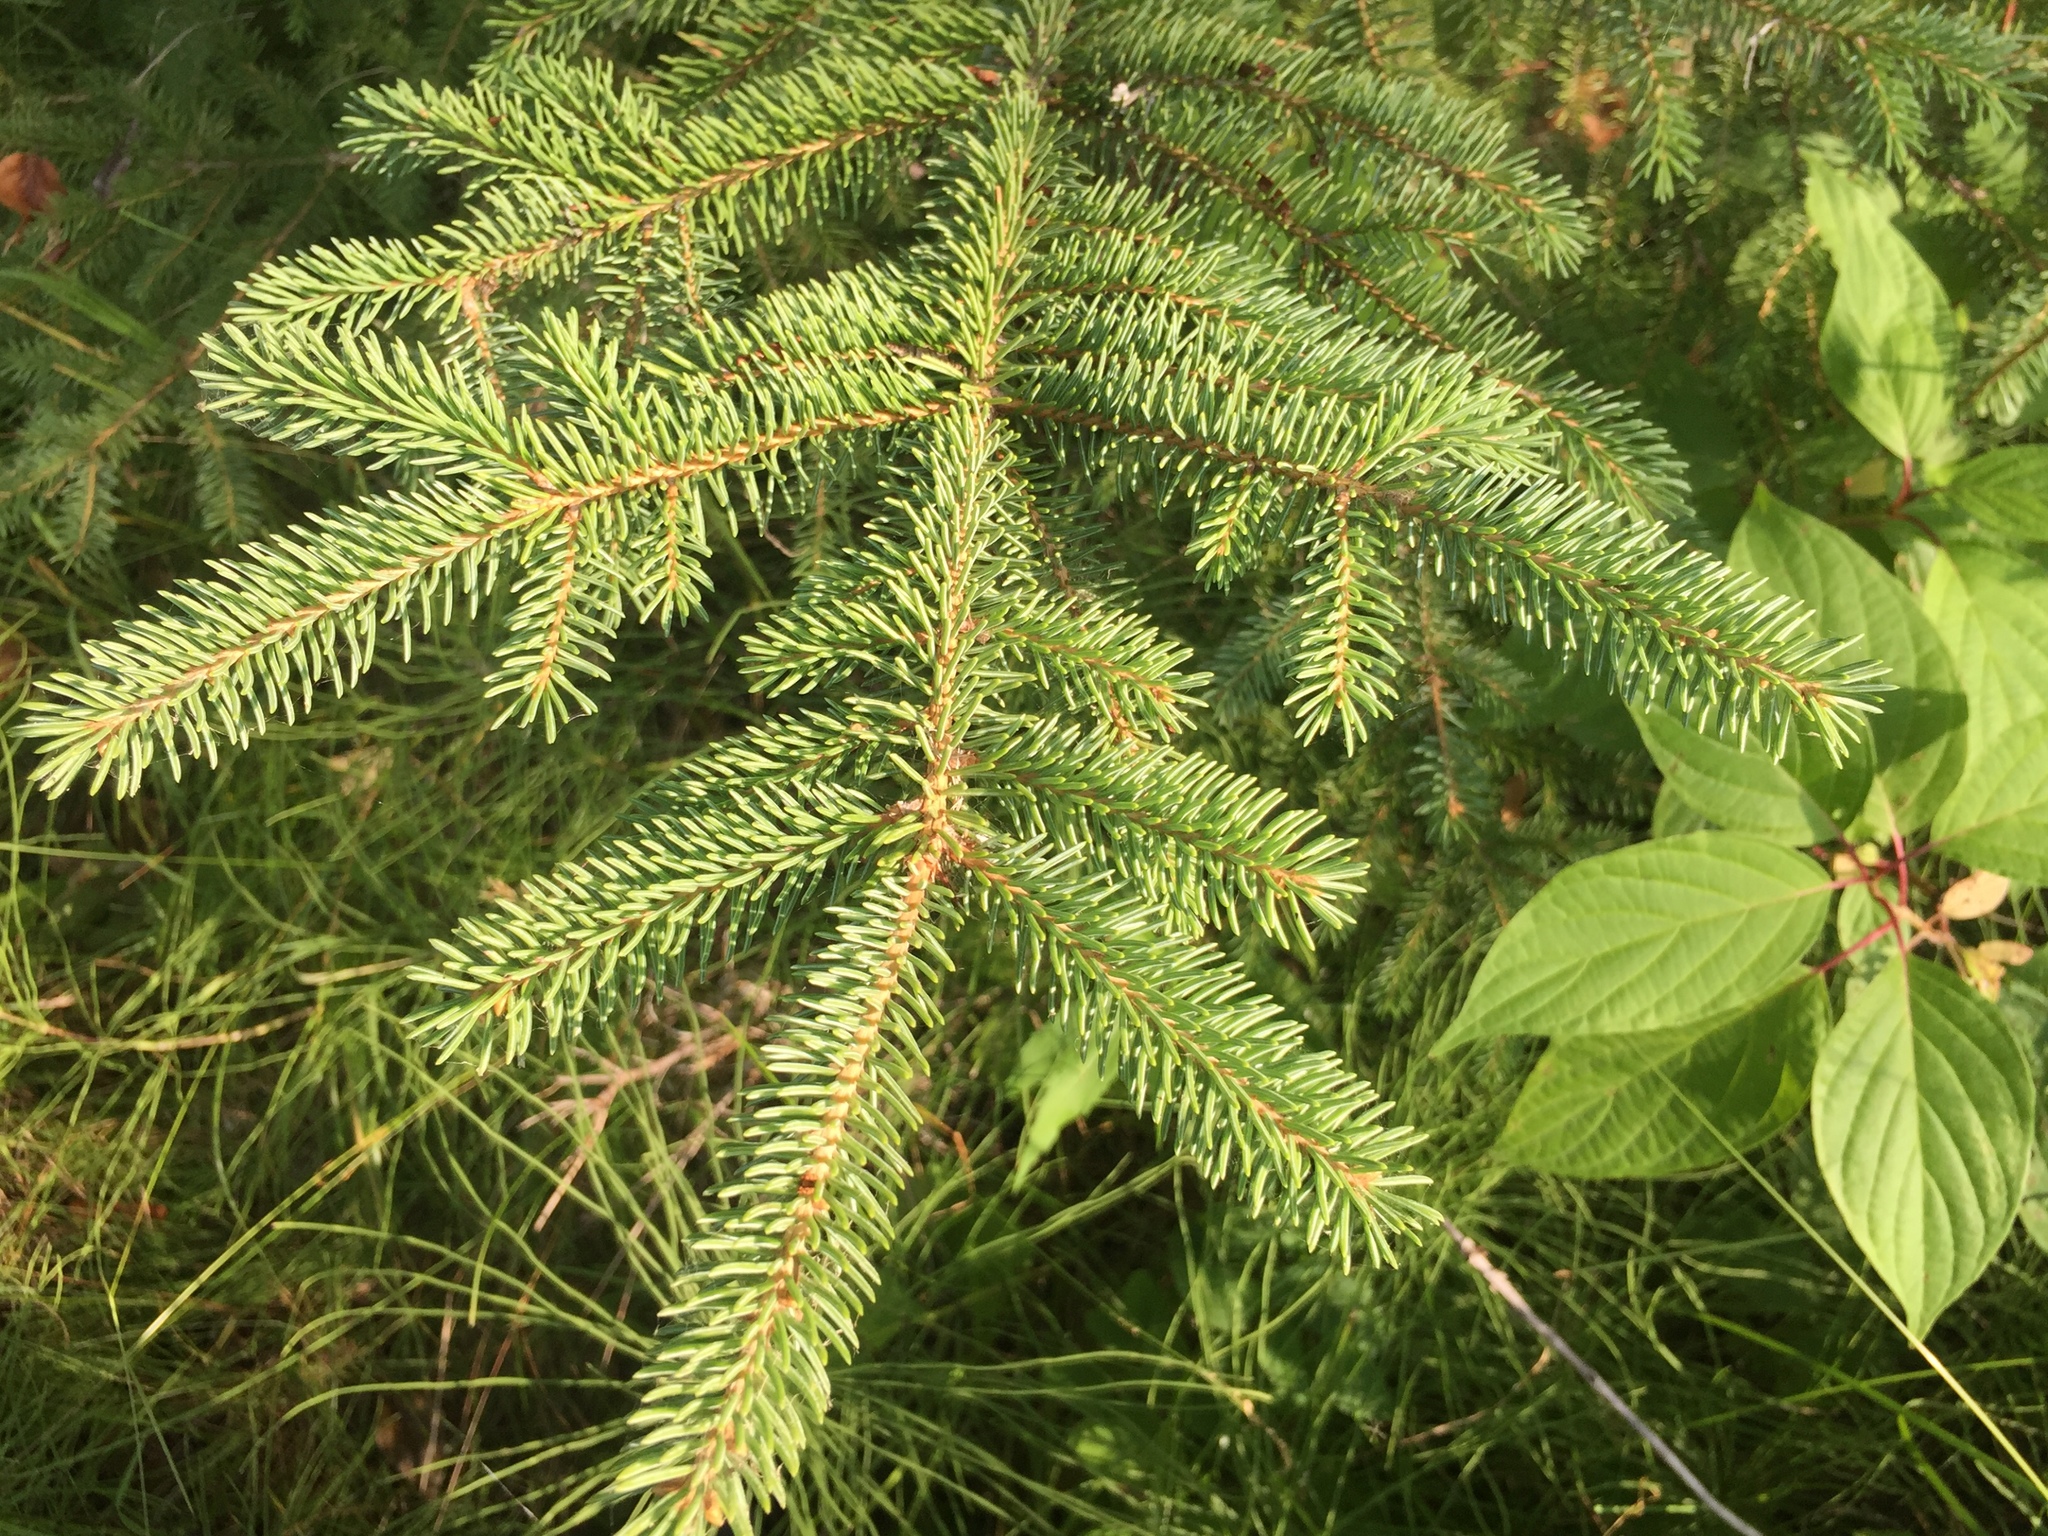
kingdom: Plantae
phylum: Tracheophyta
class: Pinopsida
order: Pinales
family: Pinaceae
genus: Picea
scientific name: Picea glauca
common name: White spruce
